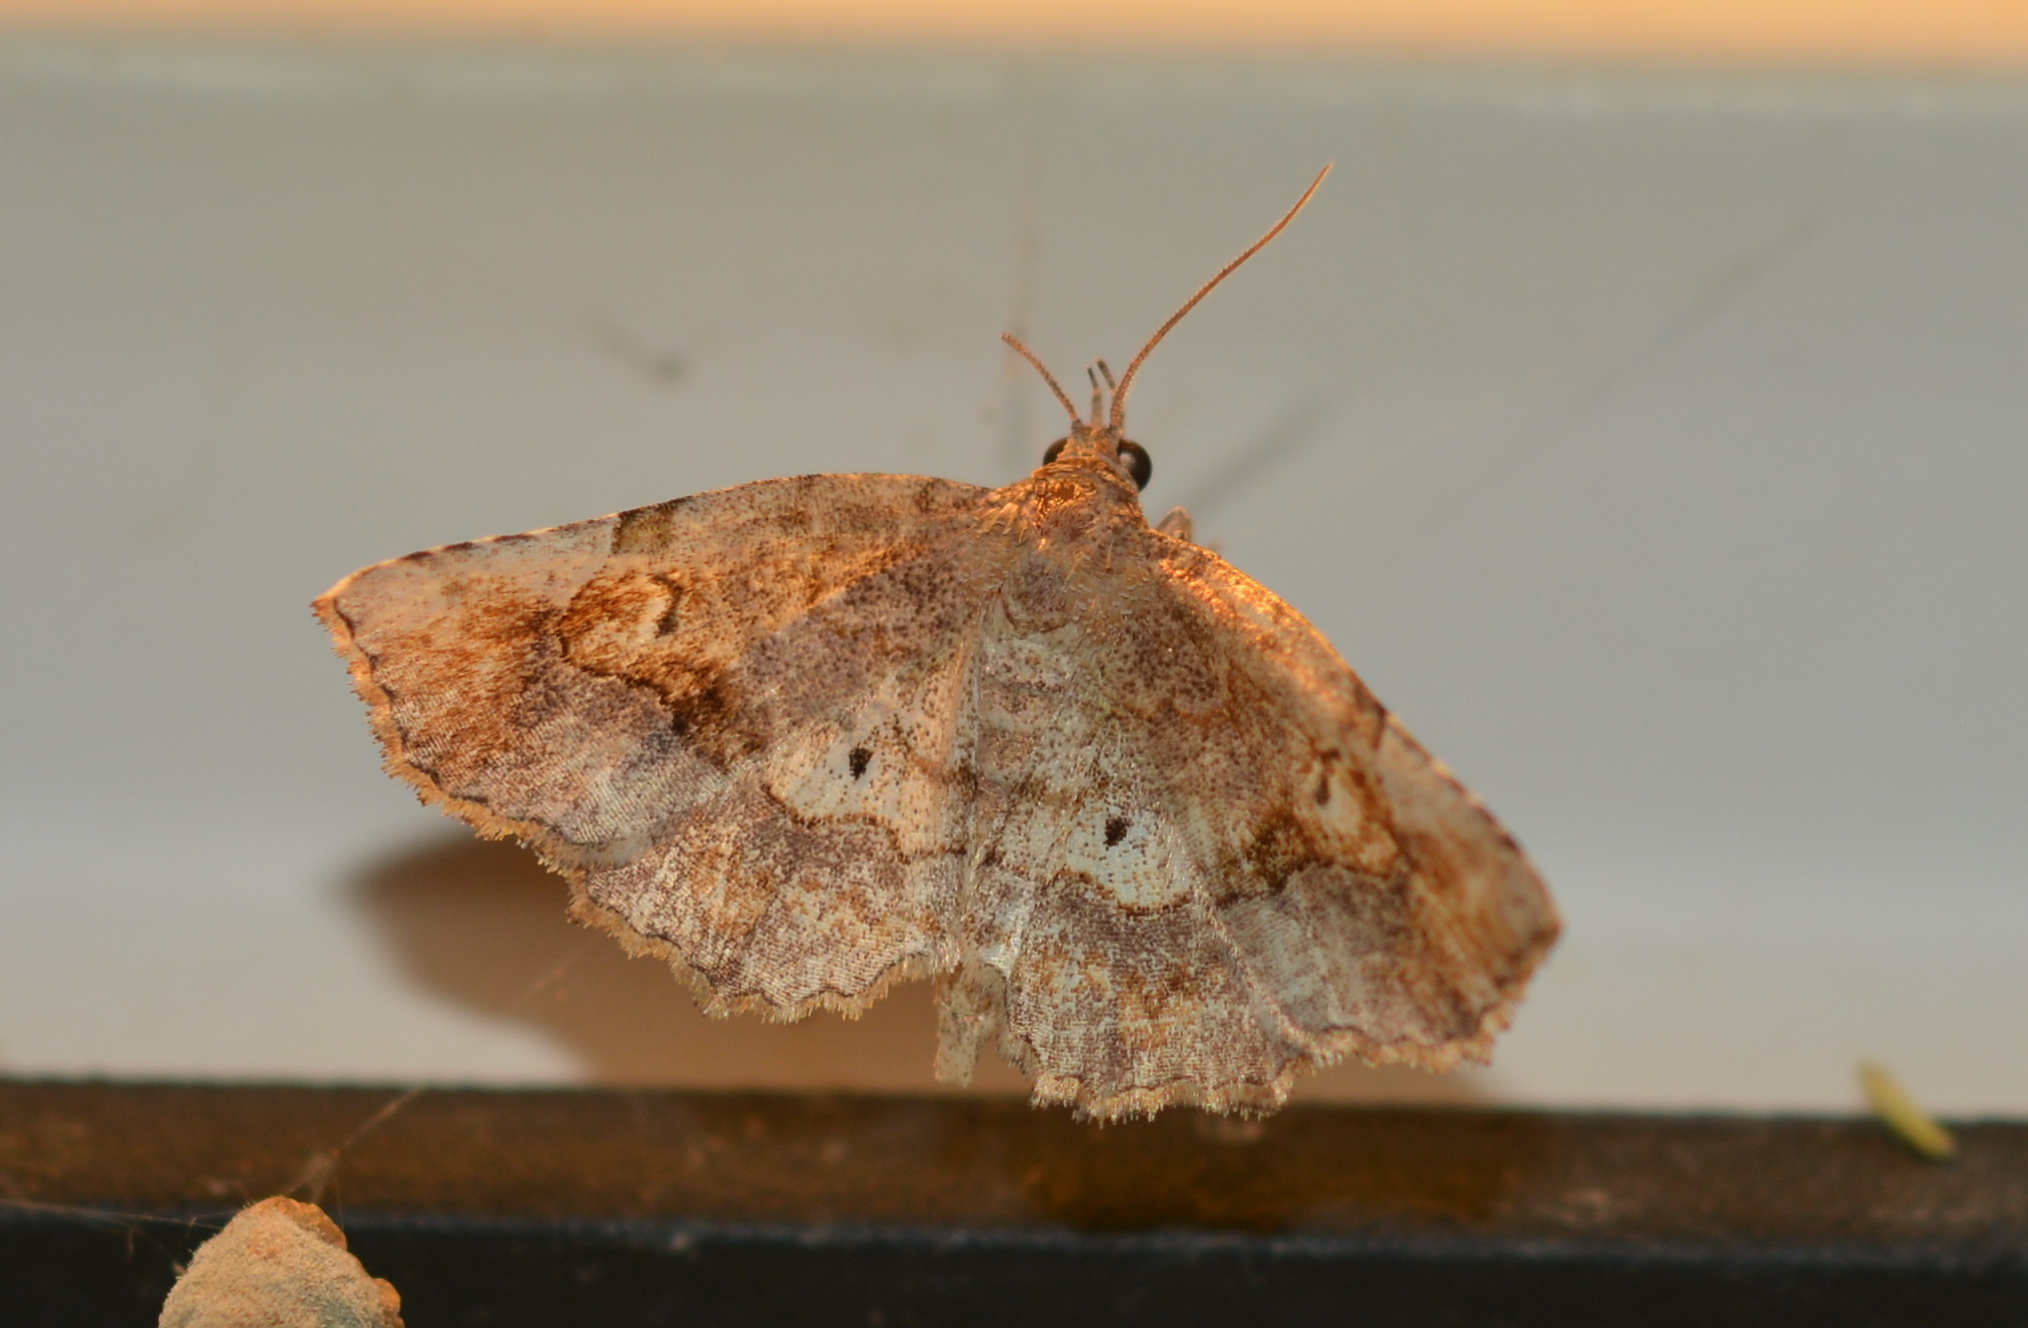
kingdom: Animalia
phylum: Arthropoda
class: Insecta
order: Lepidoptera
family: Erebidae
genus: Pangrapta
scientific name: Pangrapta decoralis
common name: Decorated owlet
